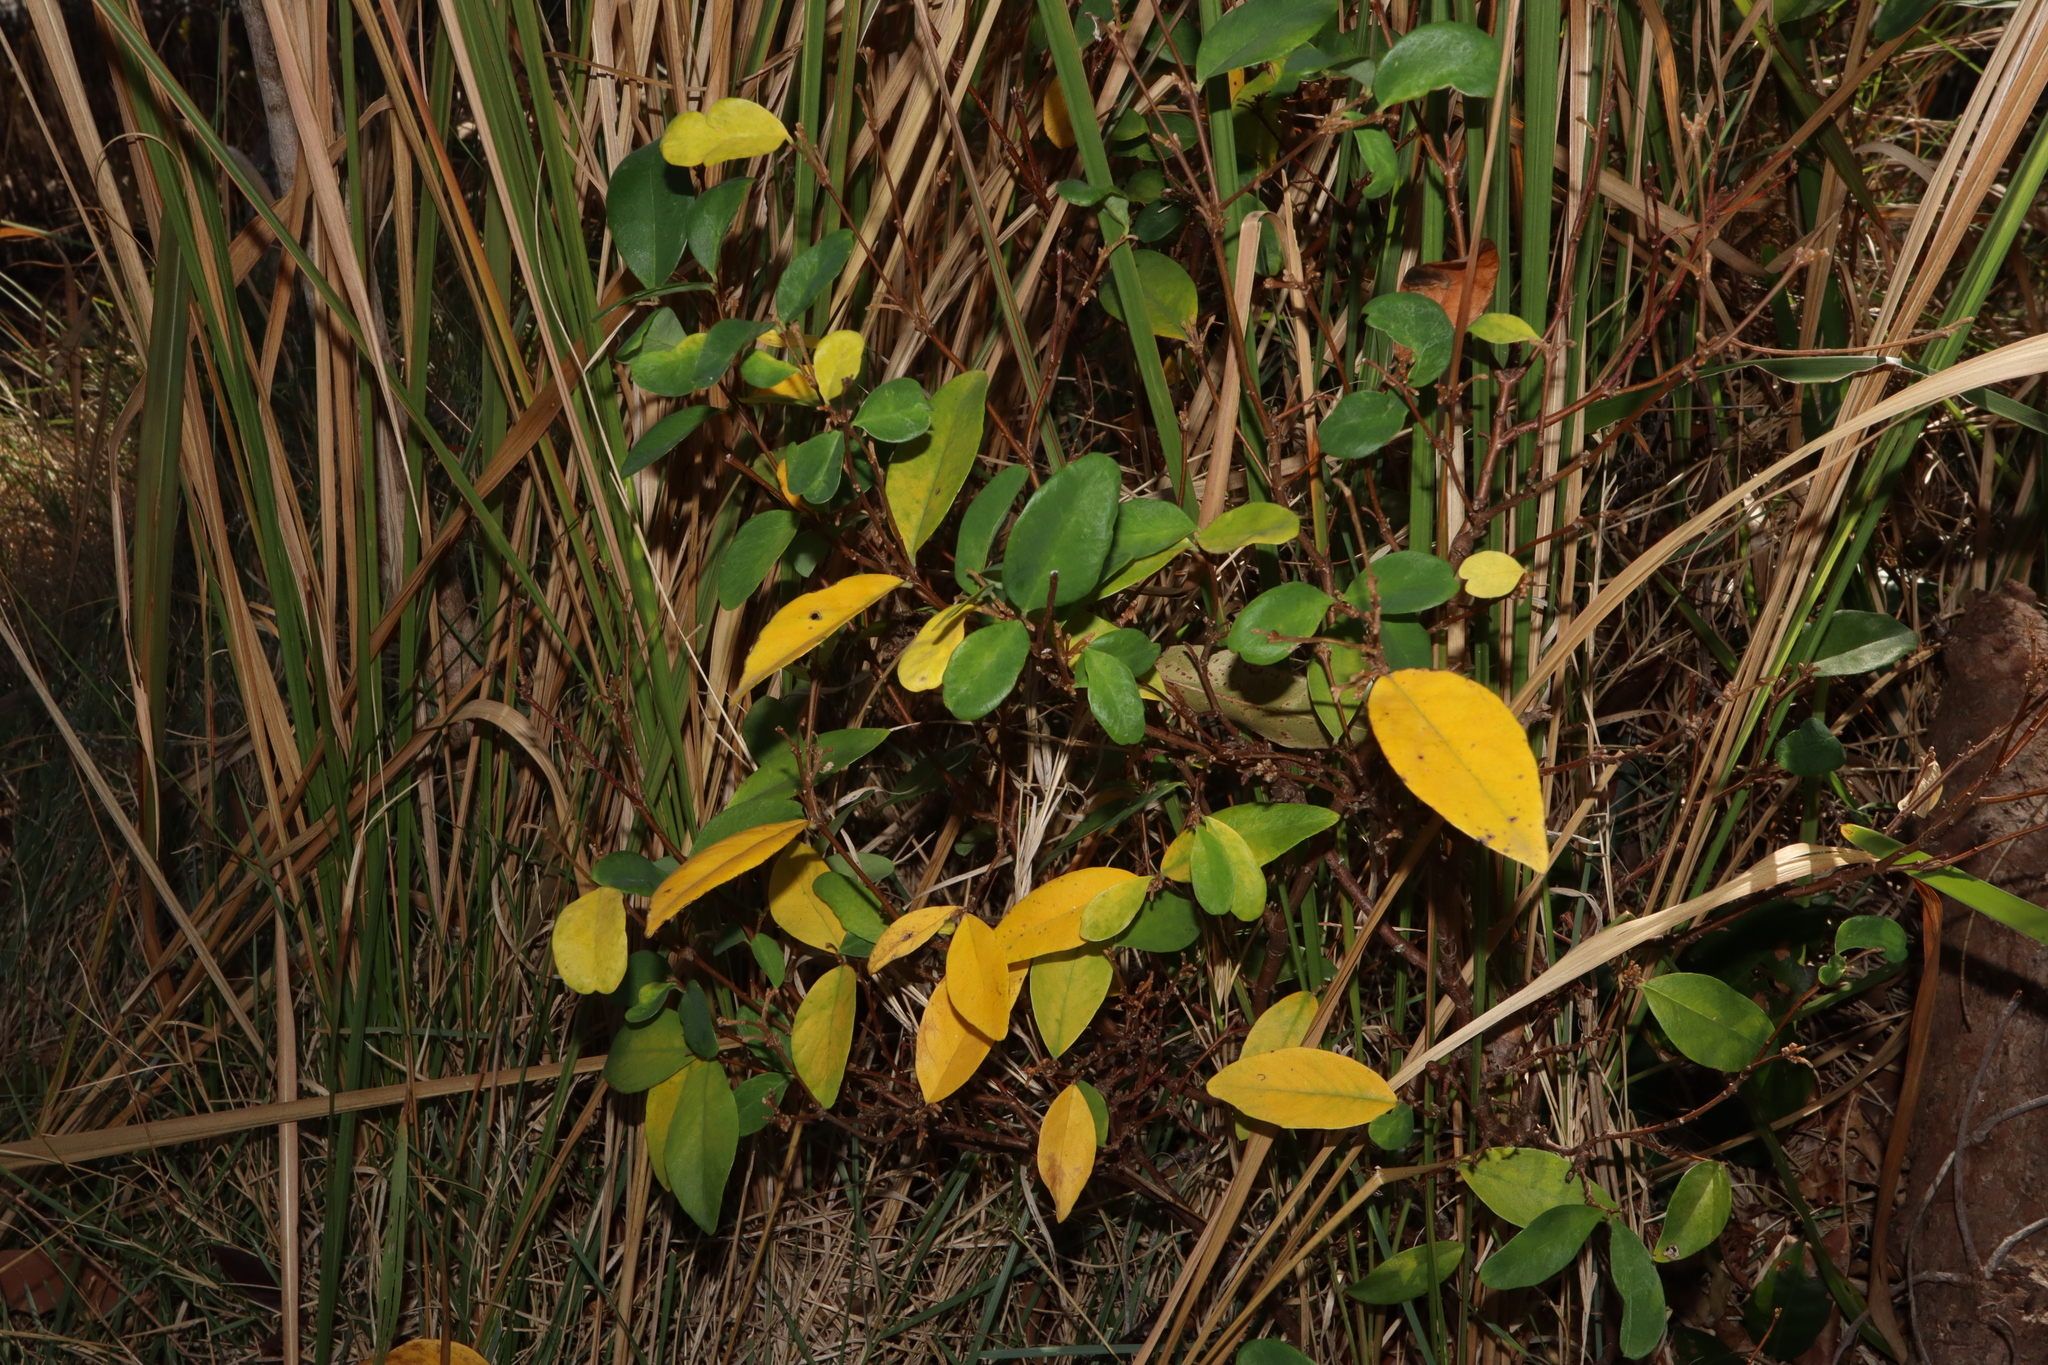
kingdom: Plantae
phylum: Tracheophyta
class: Magnoliopsida
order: Malvales
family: Thymelaeaceae
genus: Wikstroemia
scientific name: Wikstroemia indica
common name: Tiebush
